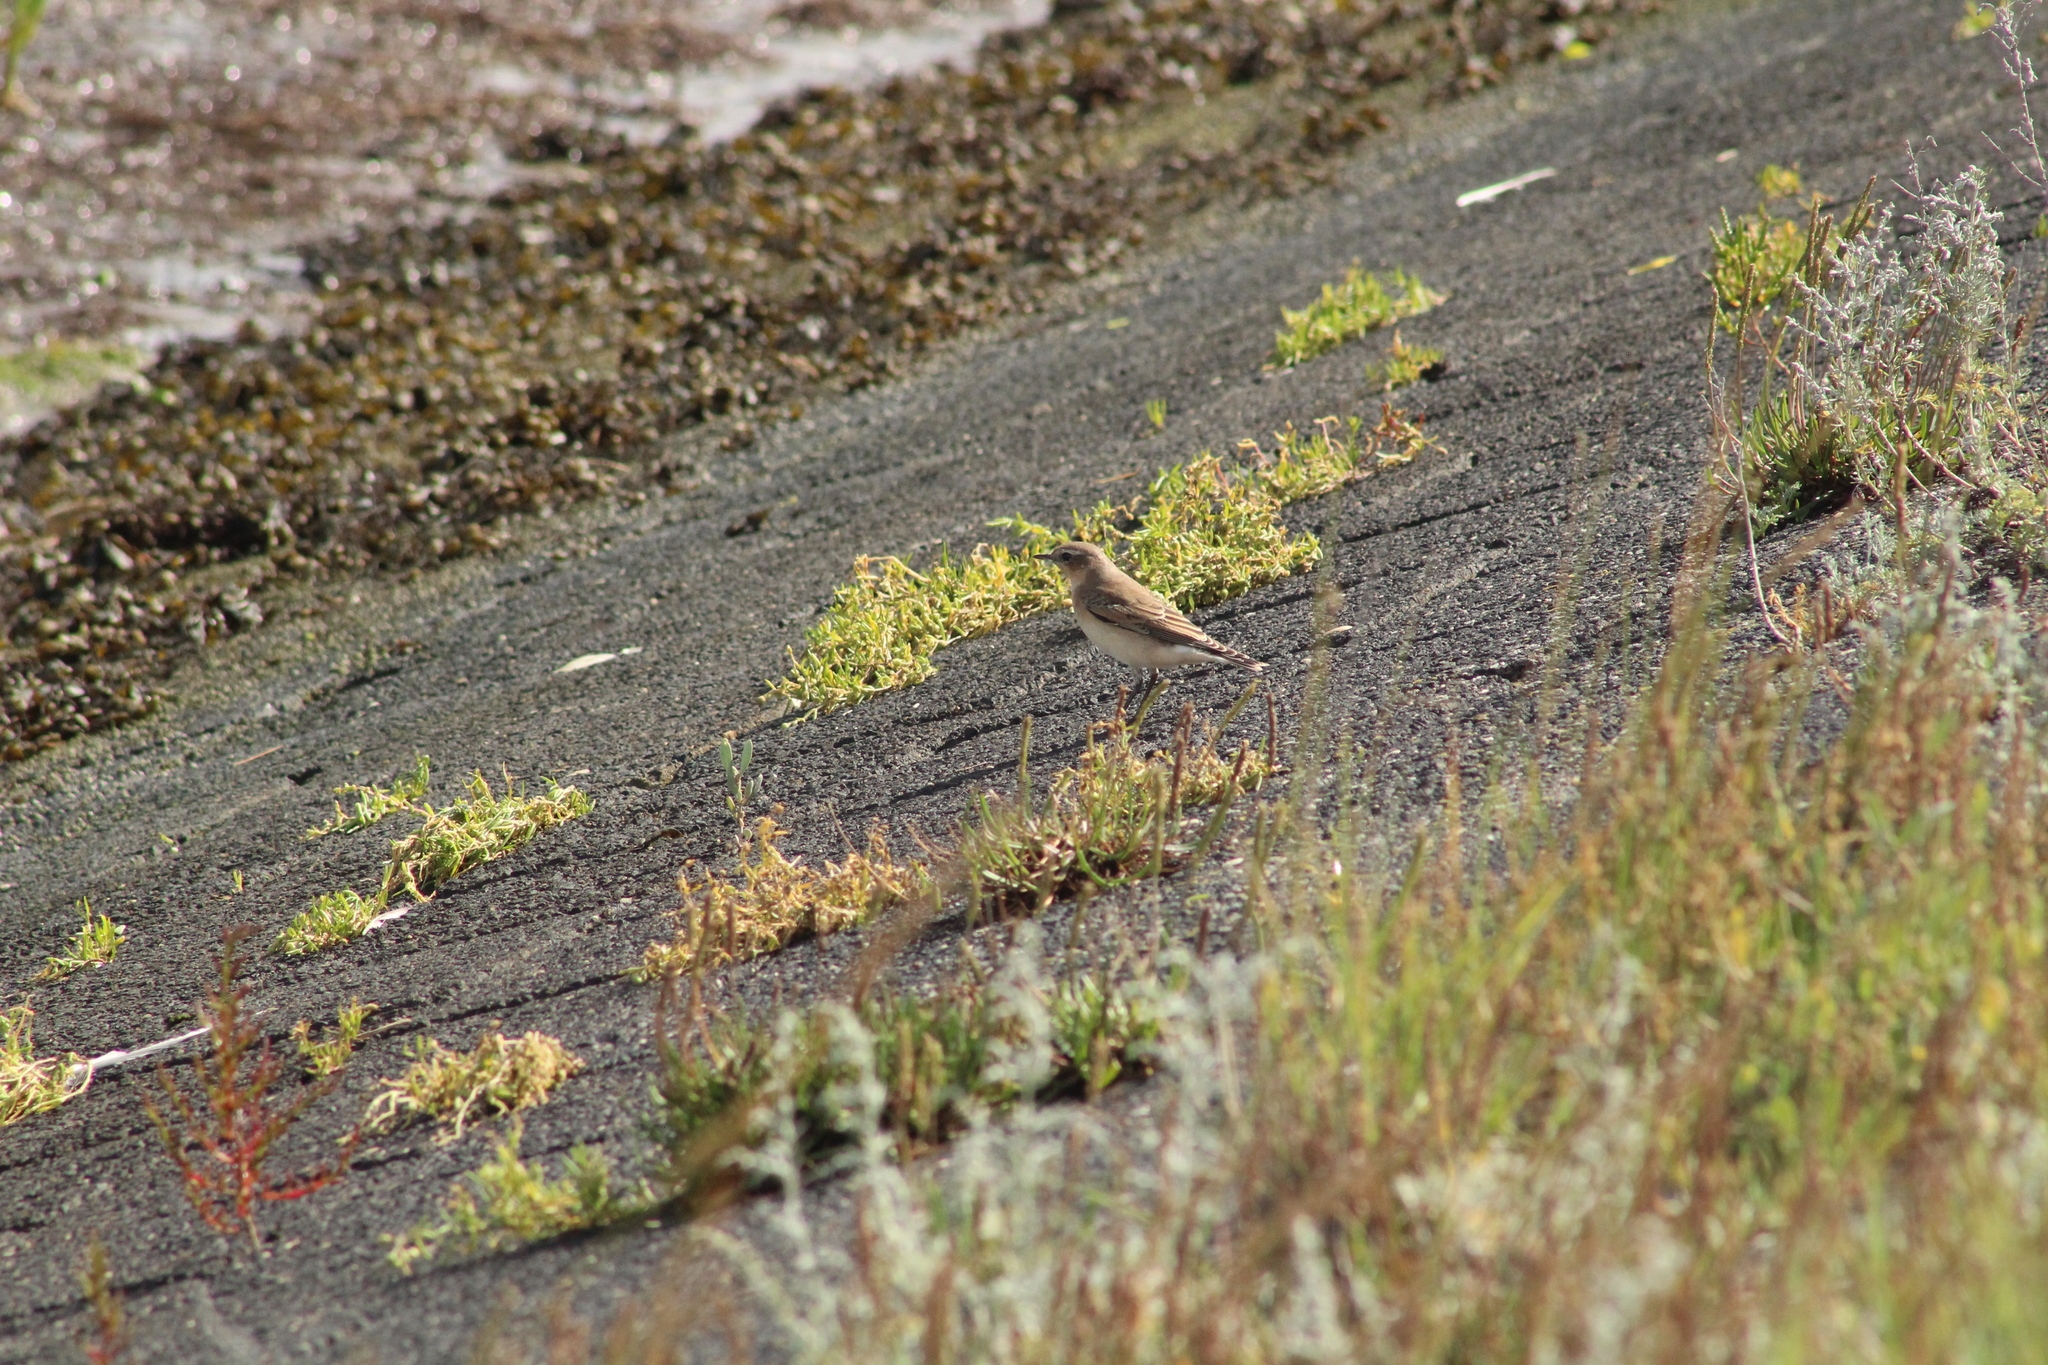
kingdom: Animalia
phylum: Chordata
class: Aves
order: Passeriformes
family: Muscicapidae
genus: Oenanthe
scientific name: Oenanthe oenanthe
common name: Northern wheatear
